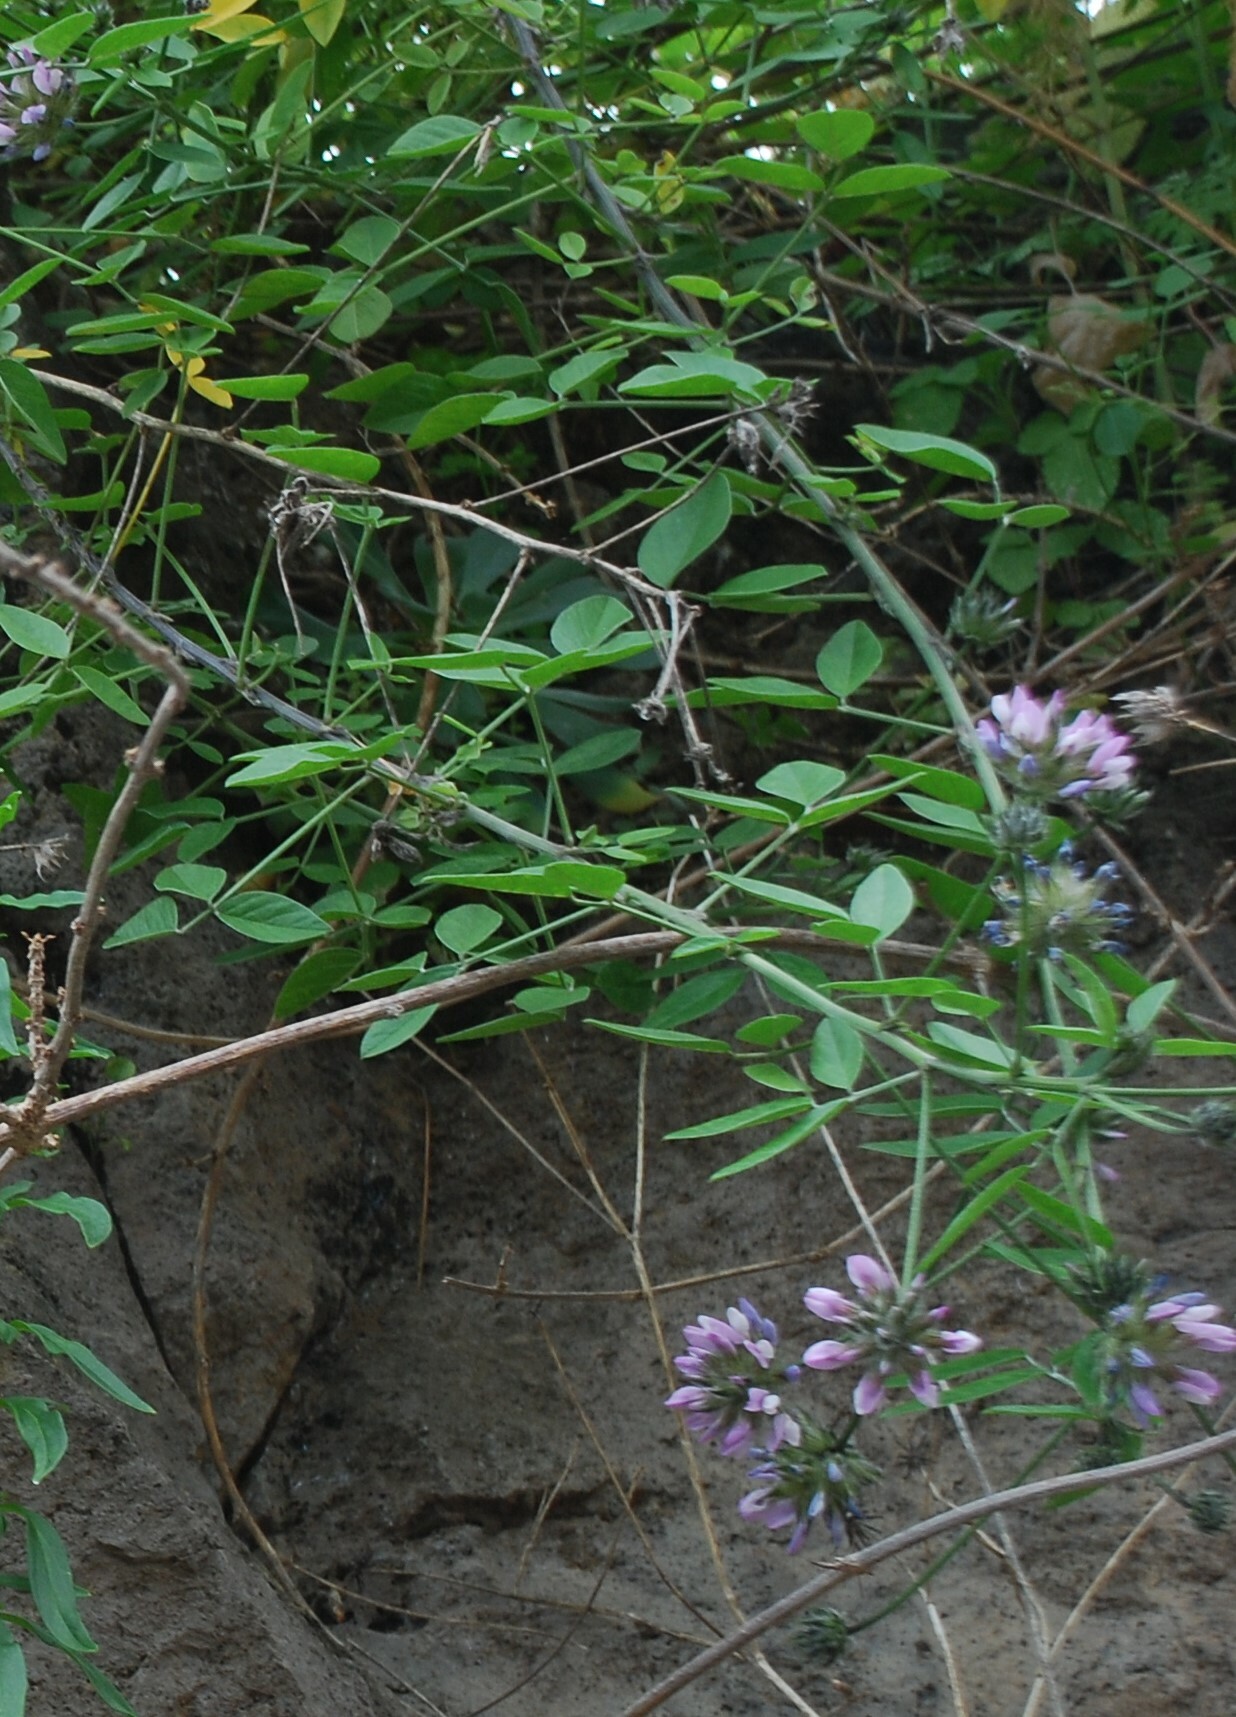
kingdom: Plantae
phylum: Tracheophyta
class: Magnoliopsida
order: Fabales
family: Fabaceae
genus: Bituminaria
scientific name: Bituminaria bituminosa
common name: Arabian pea
